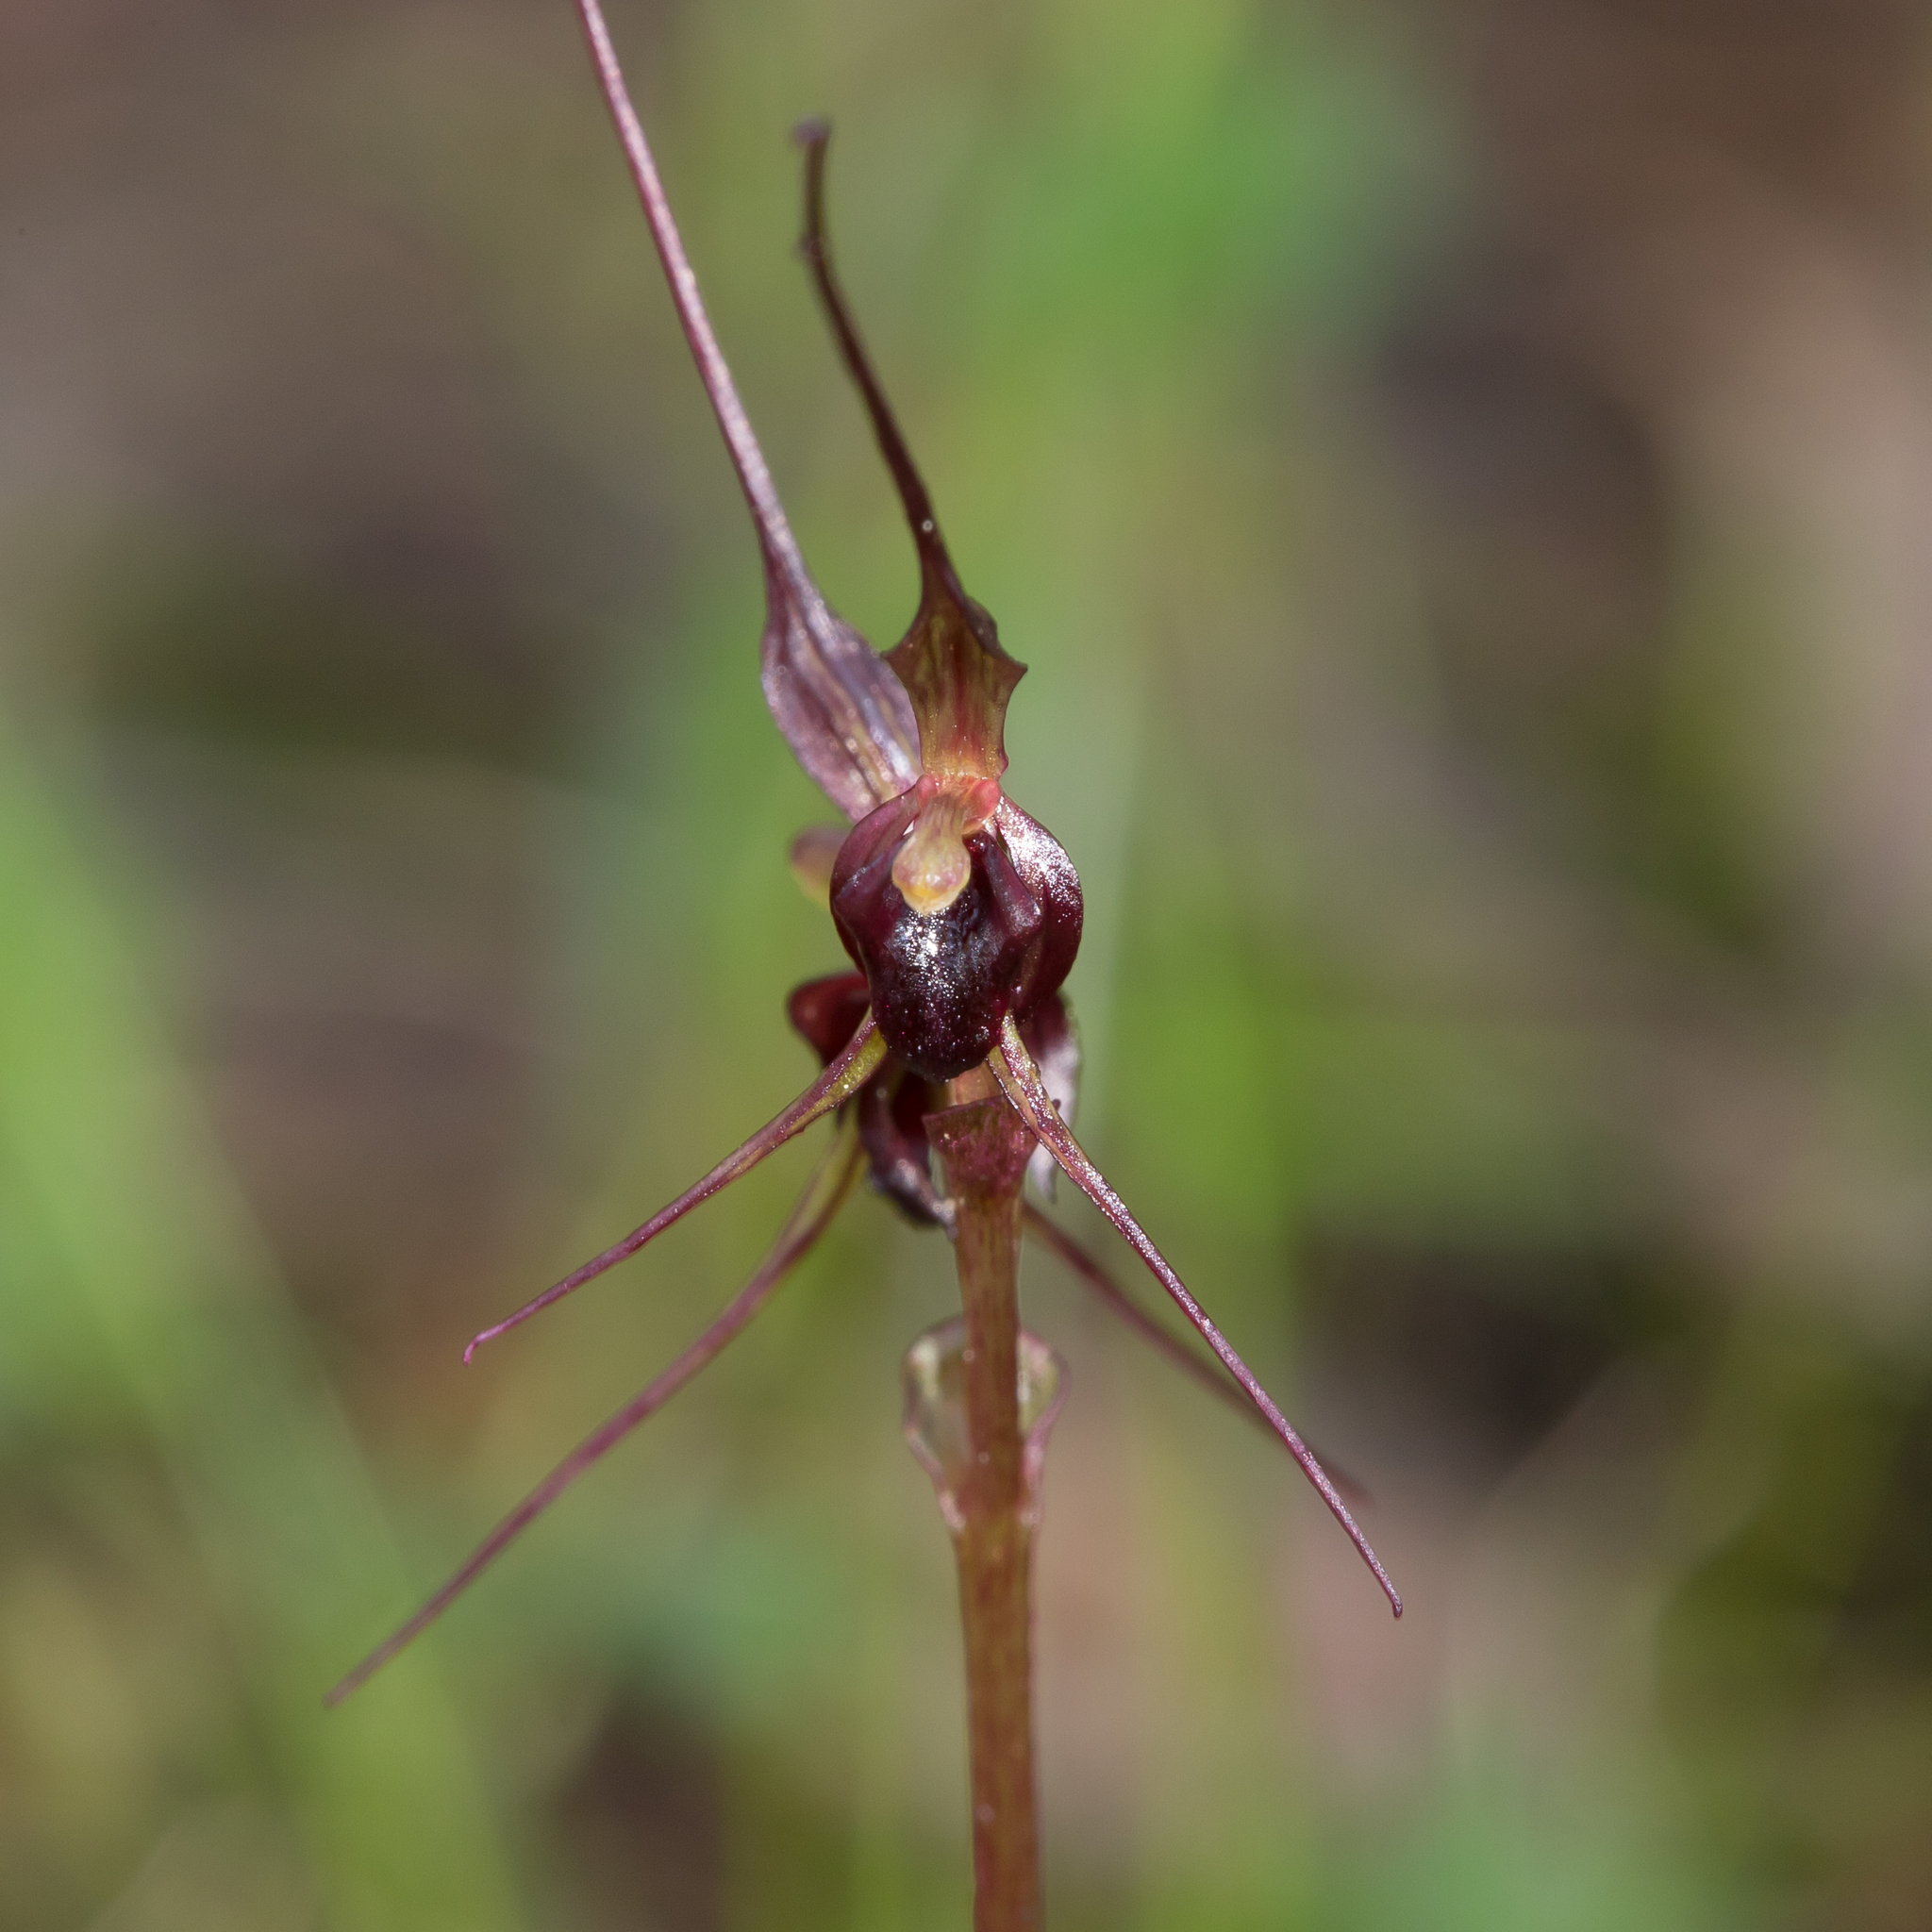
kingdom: Plantae
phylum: Tracheophyta
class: Liliopsida
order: Asparagales
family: Orchidaceae
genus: Acianthus
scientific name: Acianthus caudatus
